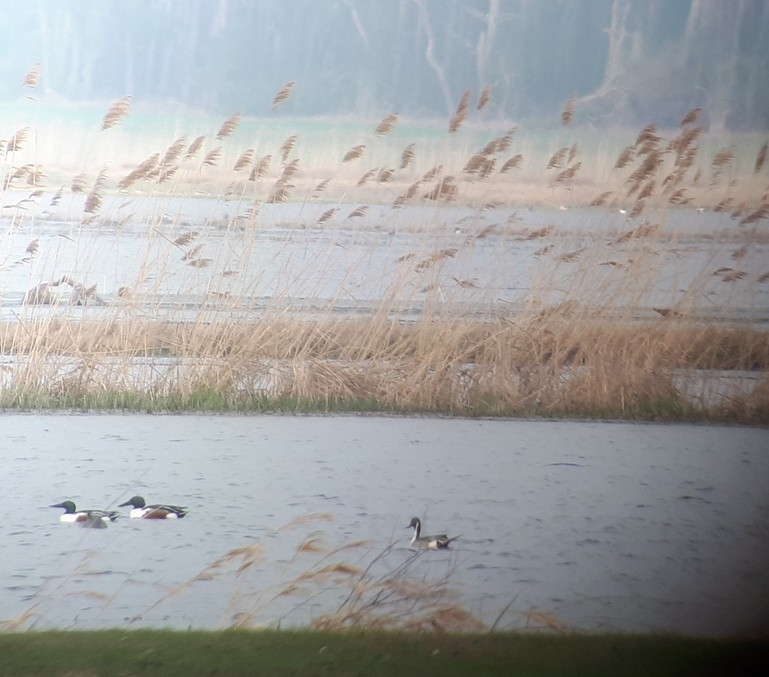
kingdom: Animalia
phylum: Chordata
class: Aves
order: Anseriformes
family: Anatidae
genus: Spatula
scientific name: Spatula clypeata
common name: Northern shoveler
